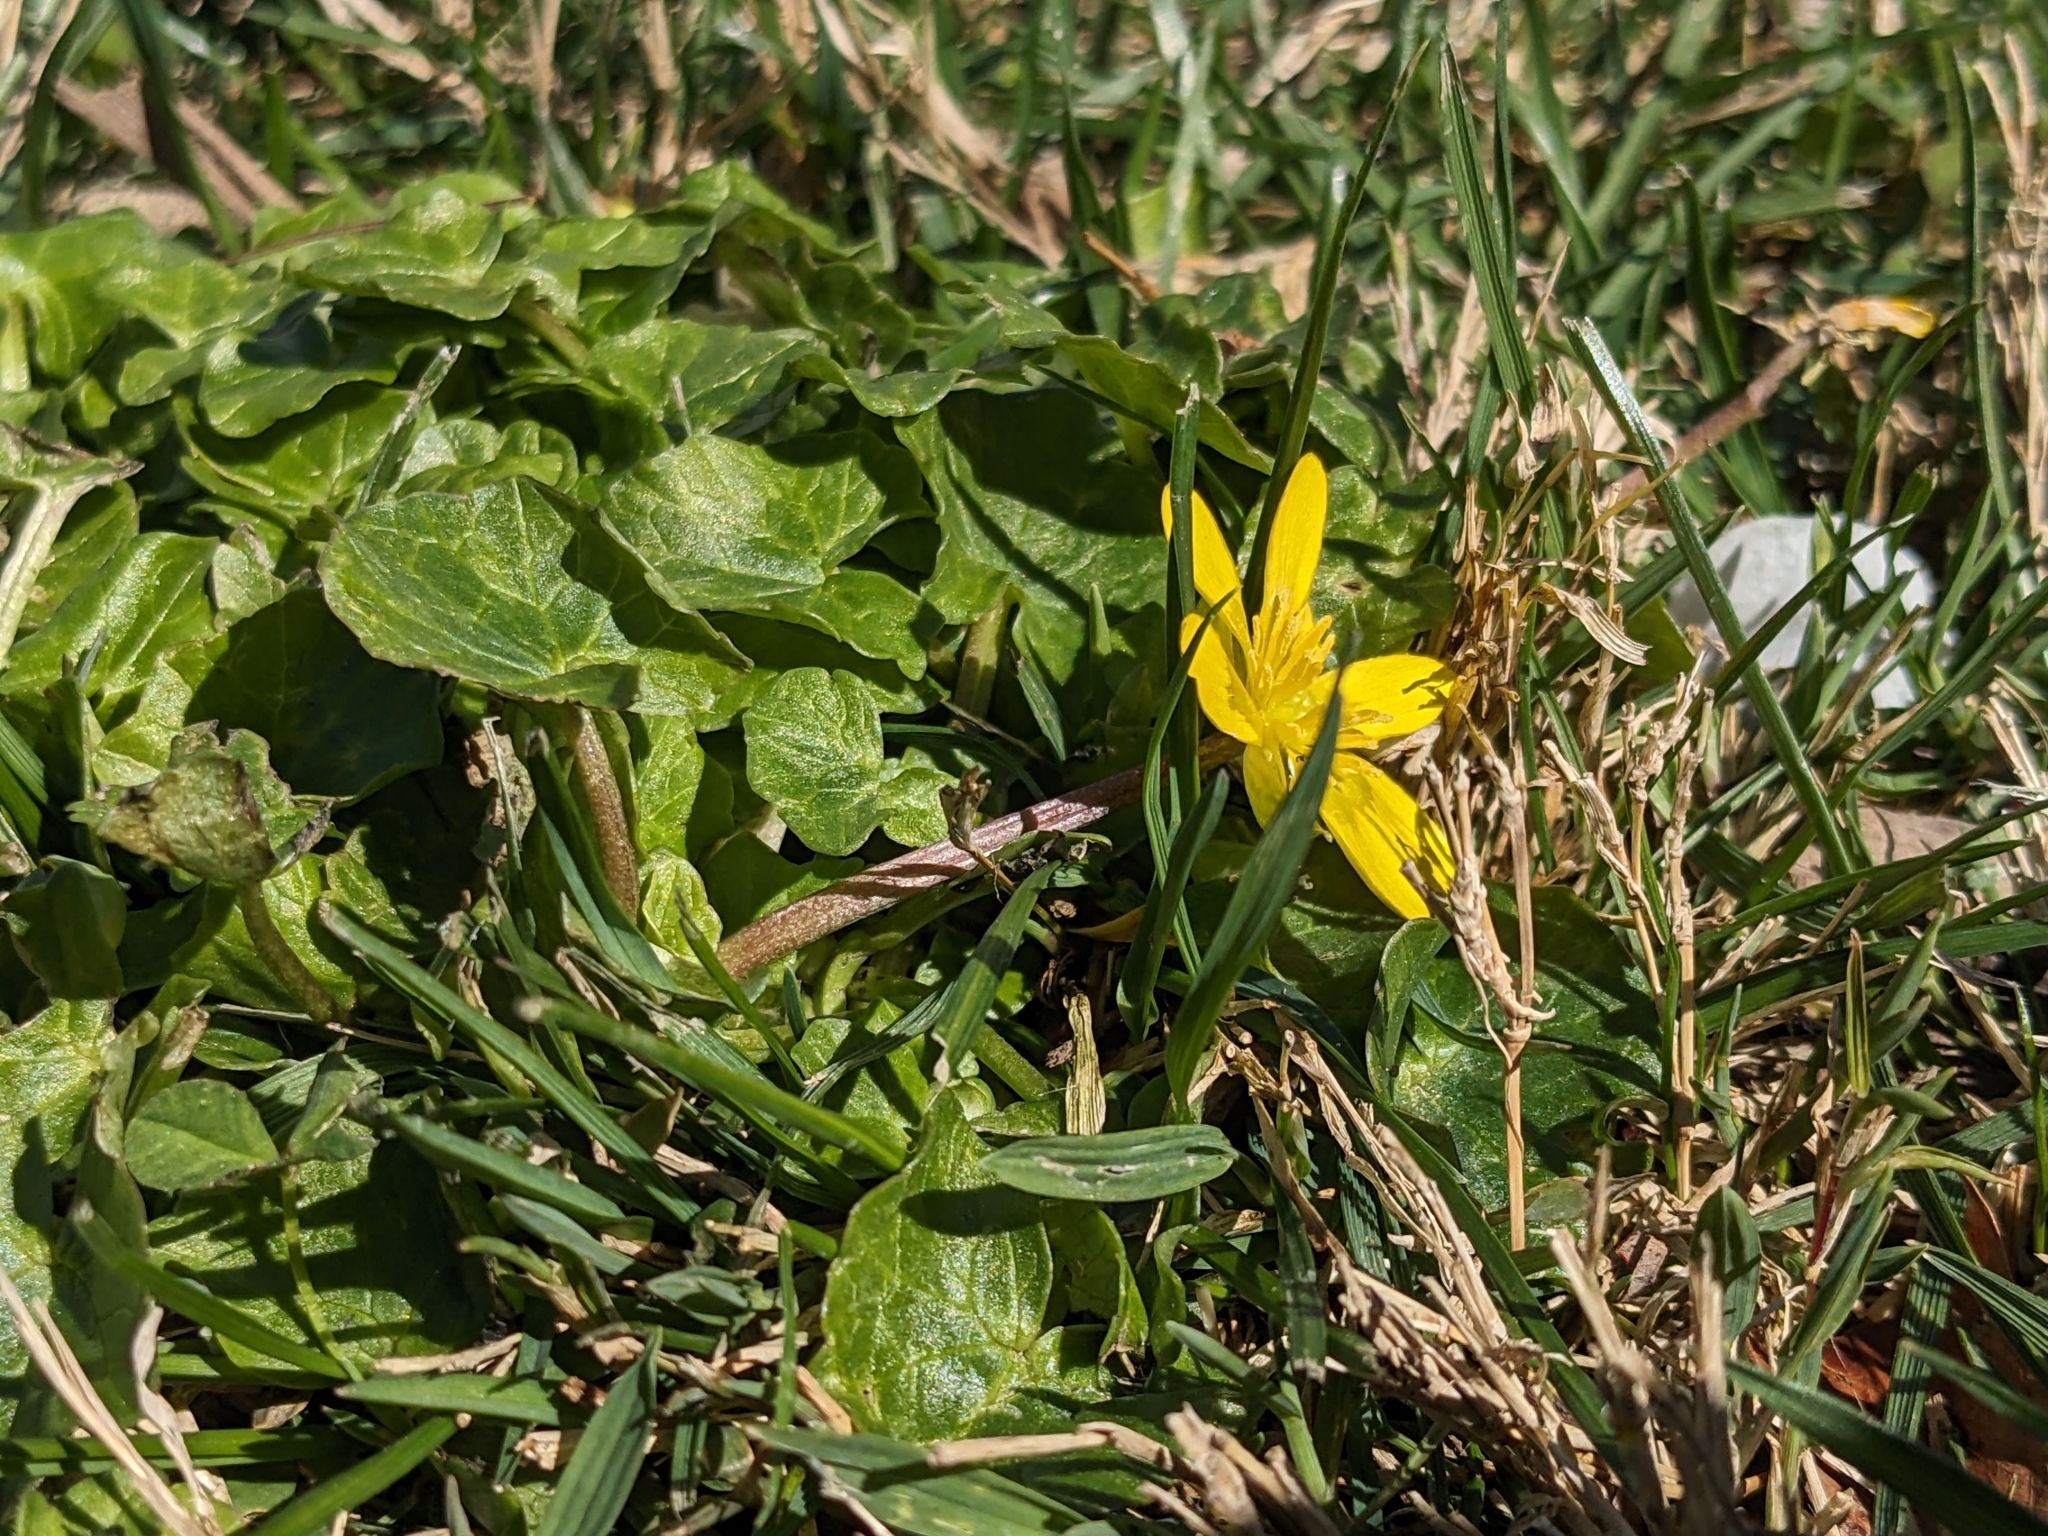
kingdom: Plantae
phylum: Tracheophyta
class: Magnoliopsida
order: Ranunculales
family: Ranunculaceae
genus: Ficaria
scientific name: Ficaria verna
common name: Lesser celandine
